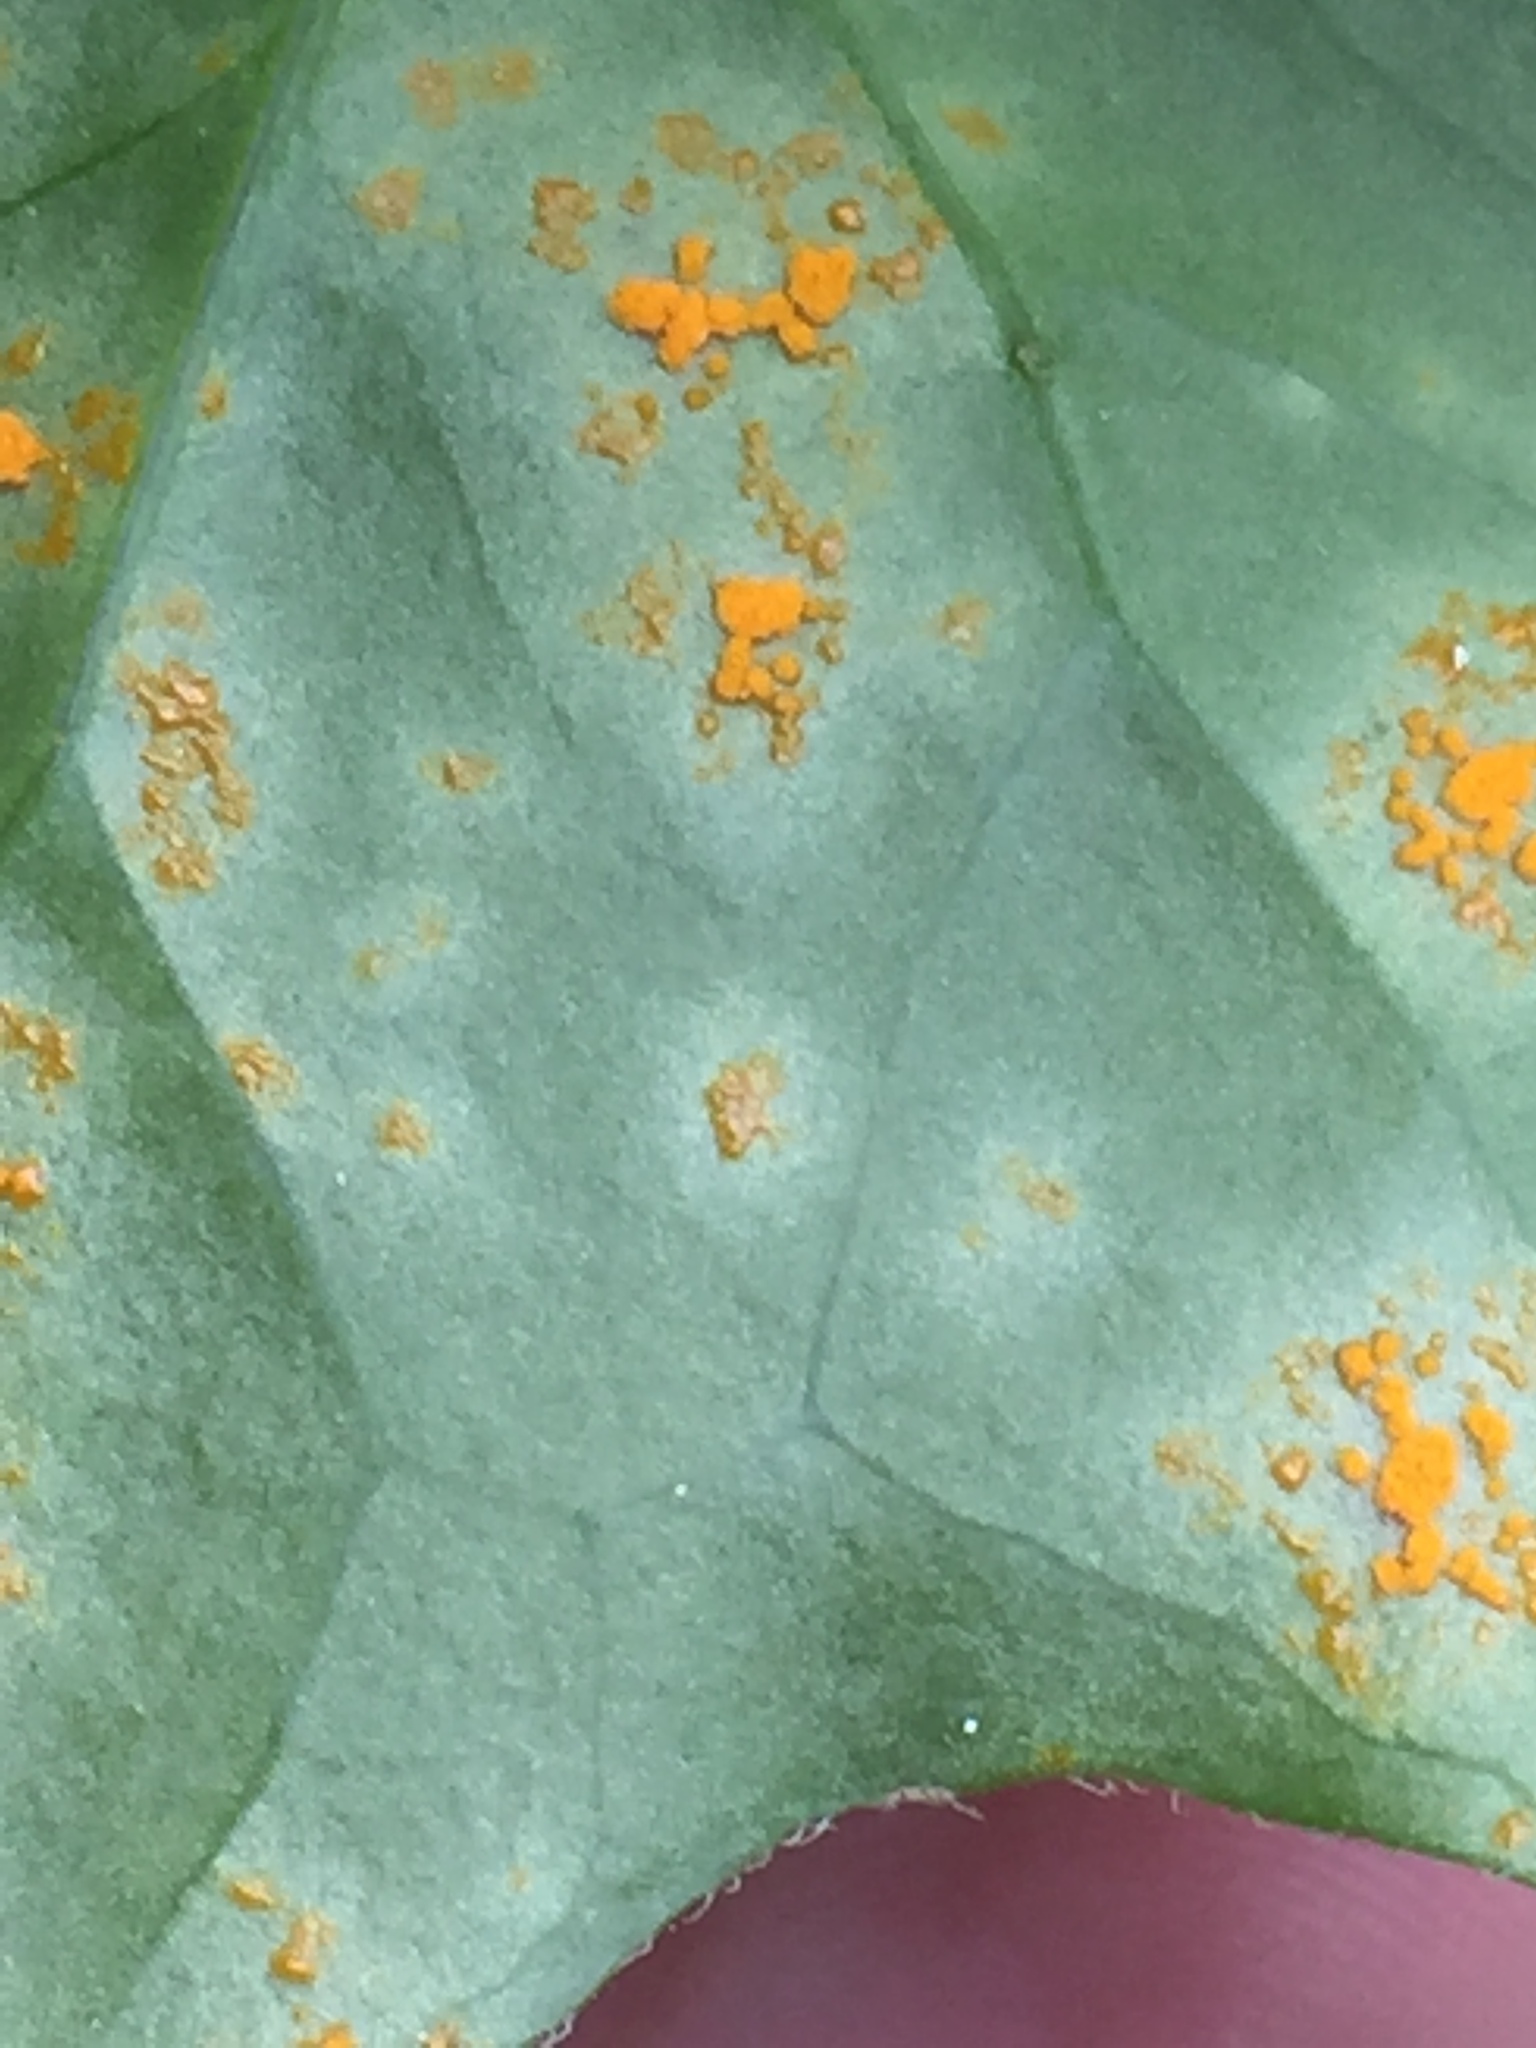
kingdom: Fungi
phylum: Basidiomycota
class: Pucciniomycetes
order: Pucciniales
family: Coleosporiaceae
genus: Coleosporium
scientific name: Coleosporium tussilaginis
